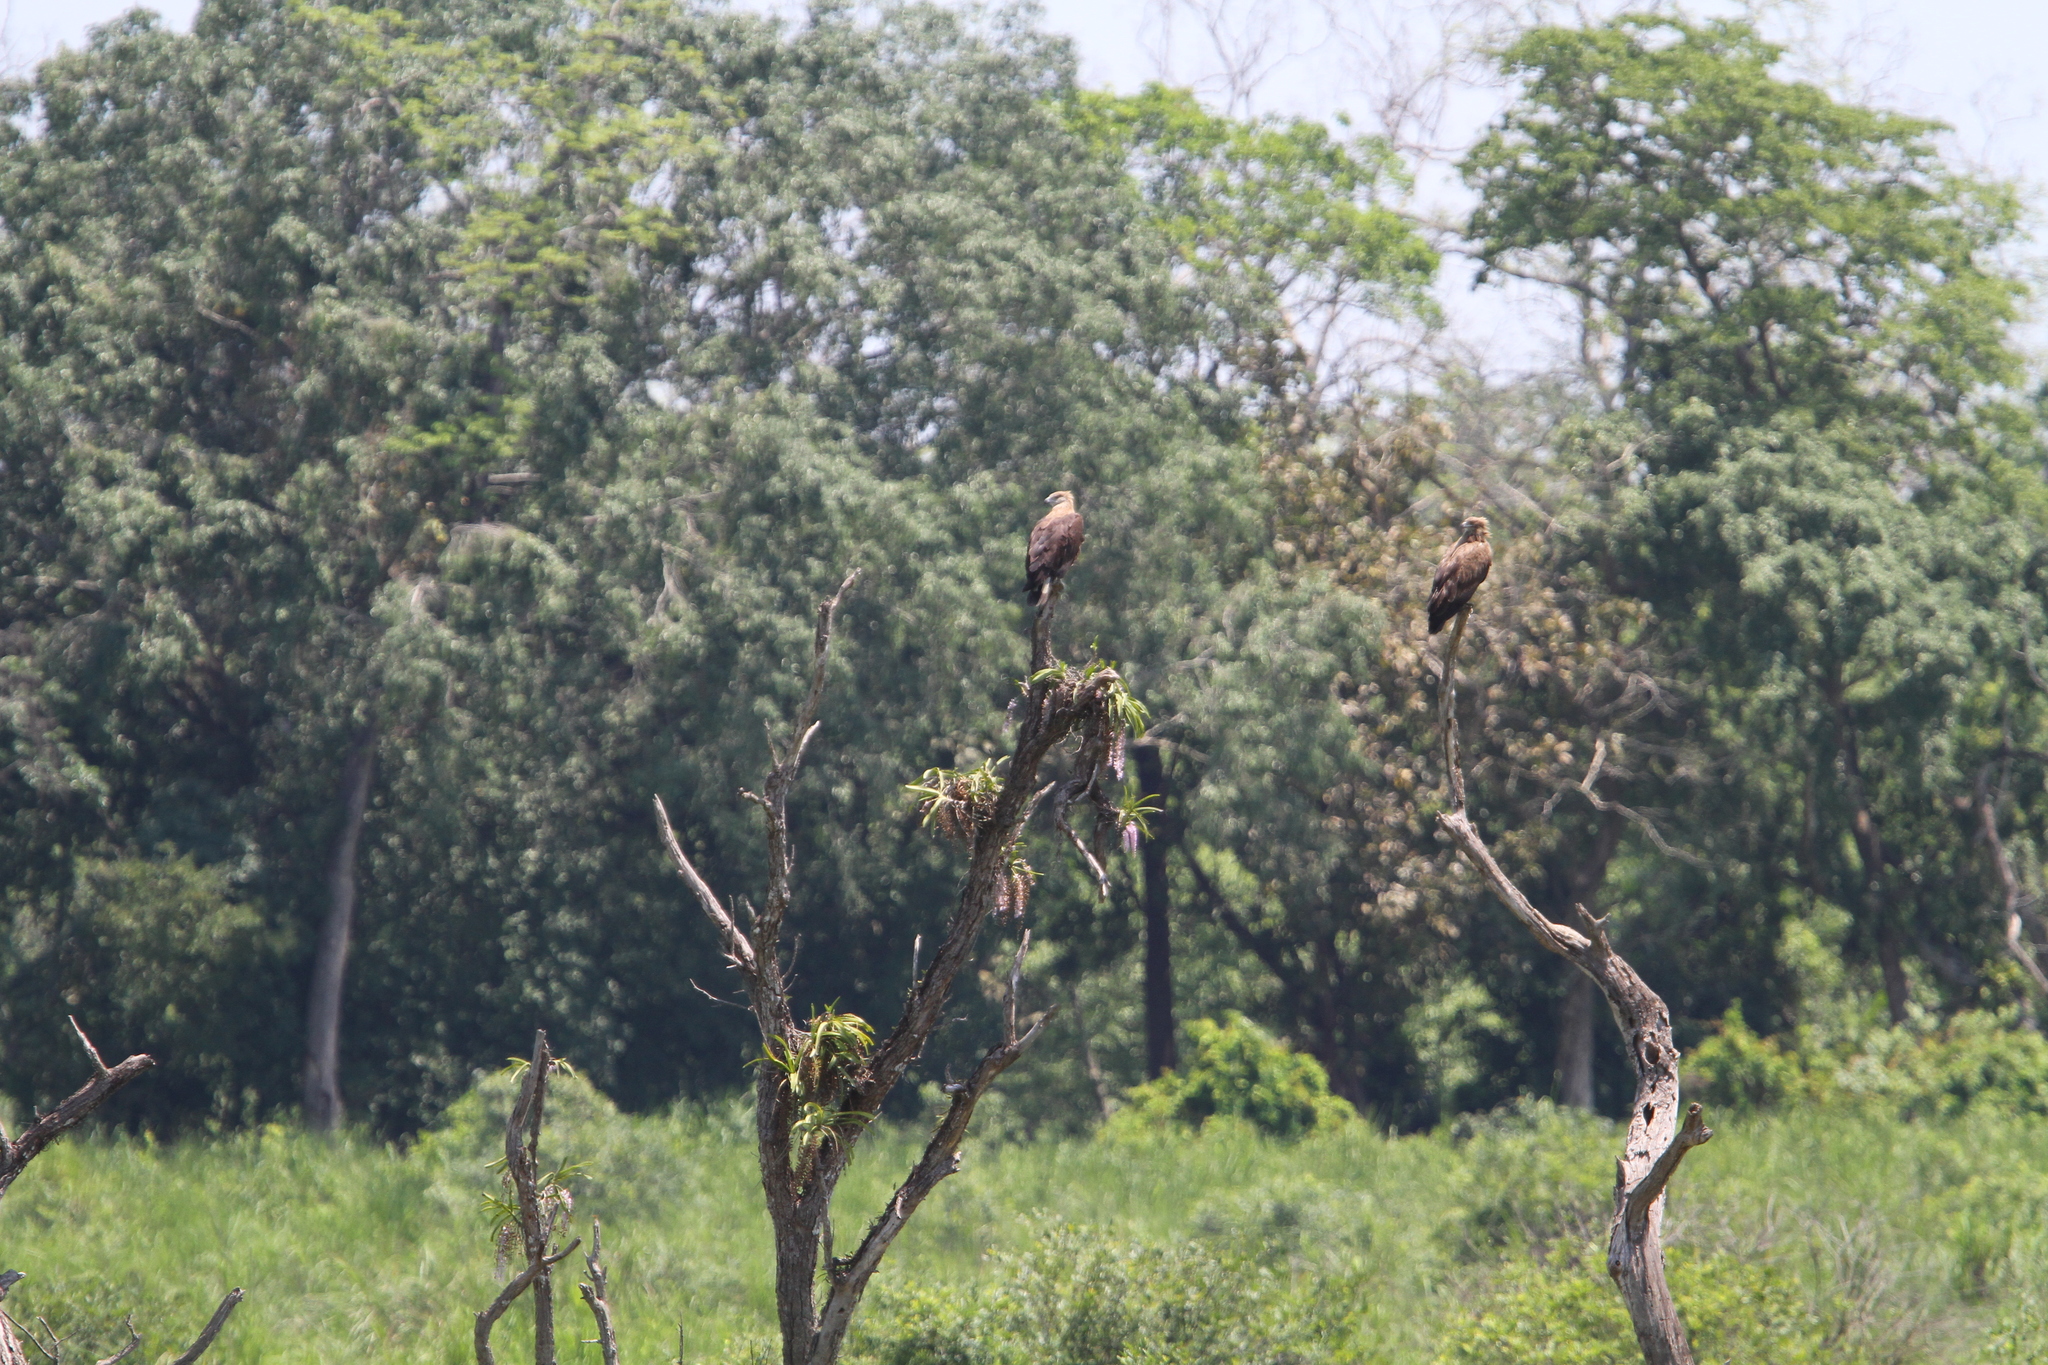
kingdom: Animalia
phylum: Chordata
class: Aves
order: Accipitriformes
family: Accipitridae
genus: Haliaeetus
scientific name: Haliaeetus leucoryphus
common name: Pallas's fish eagle
